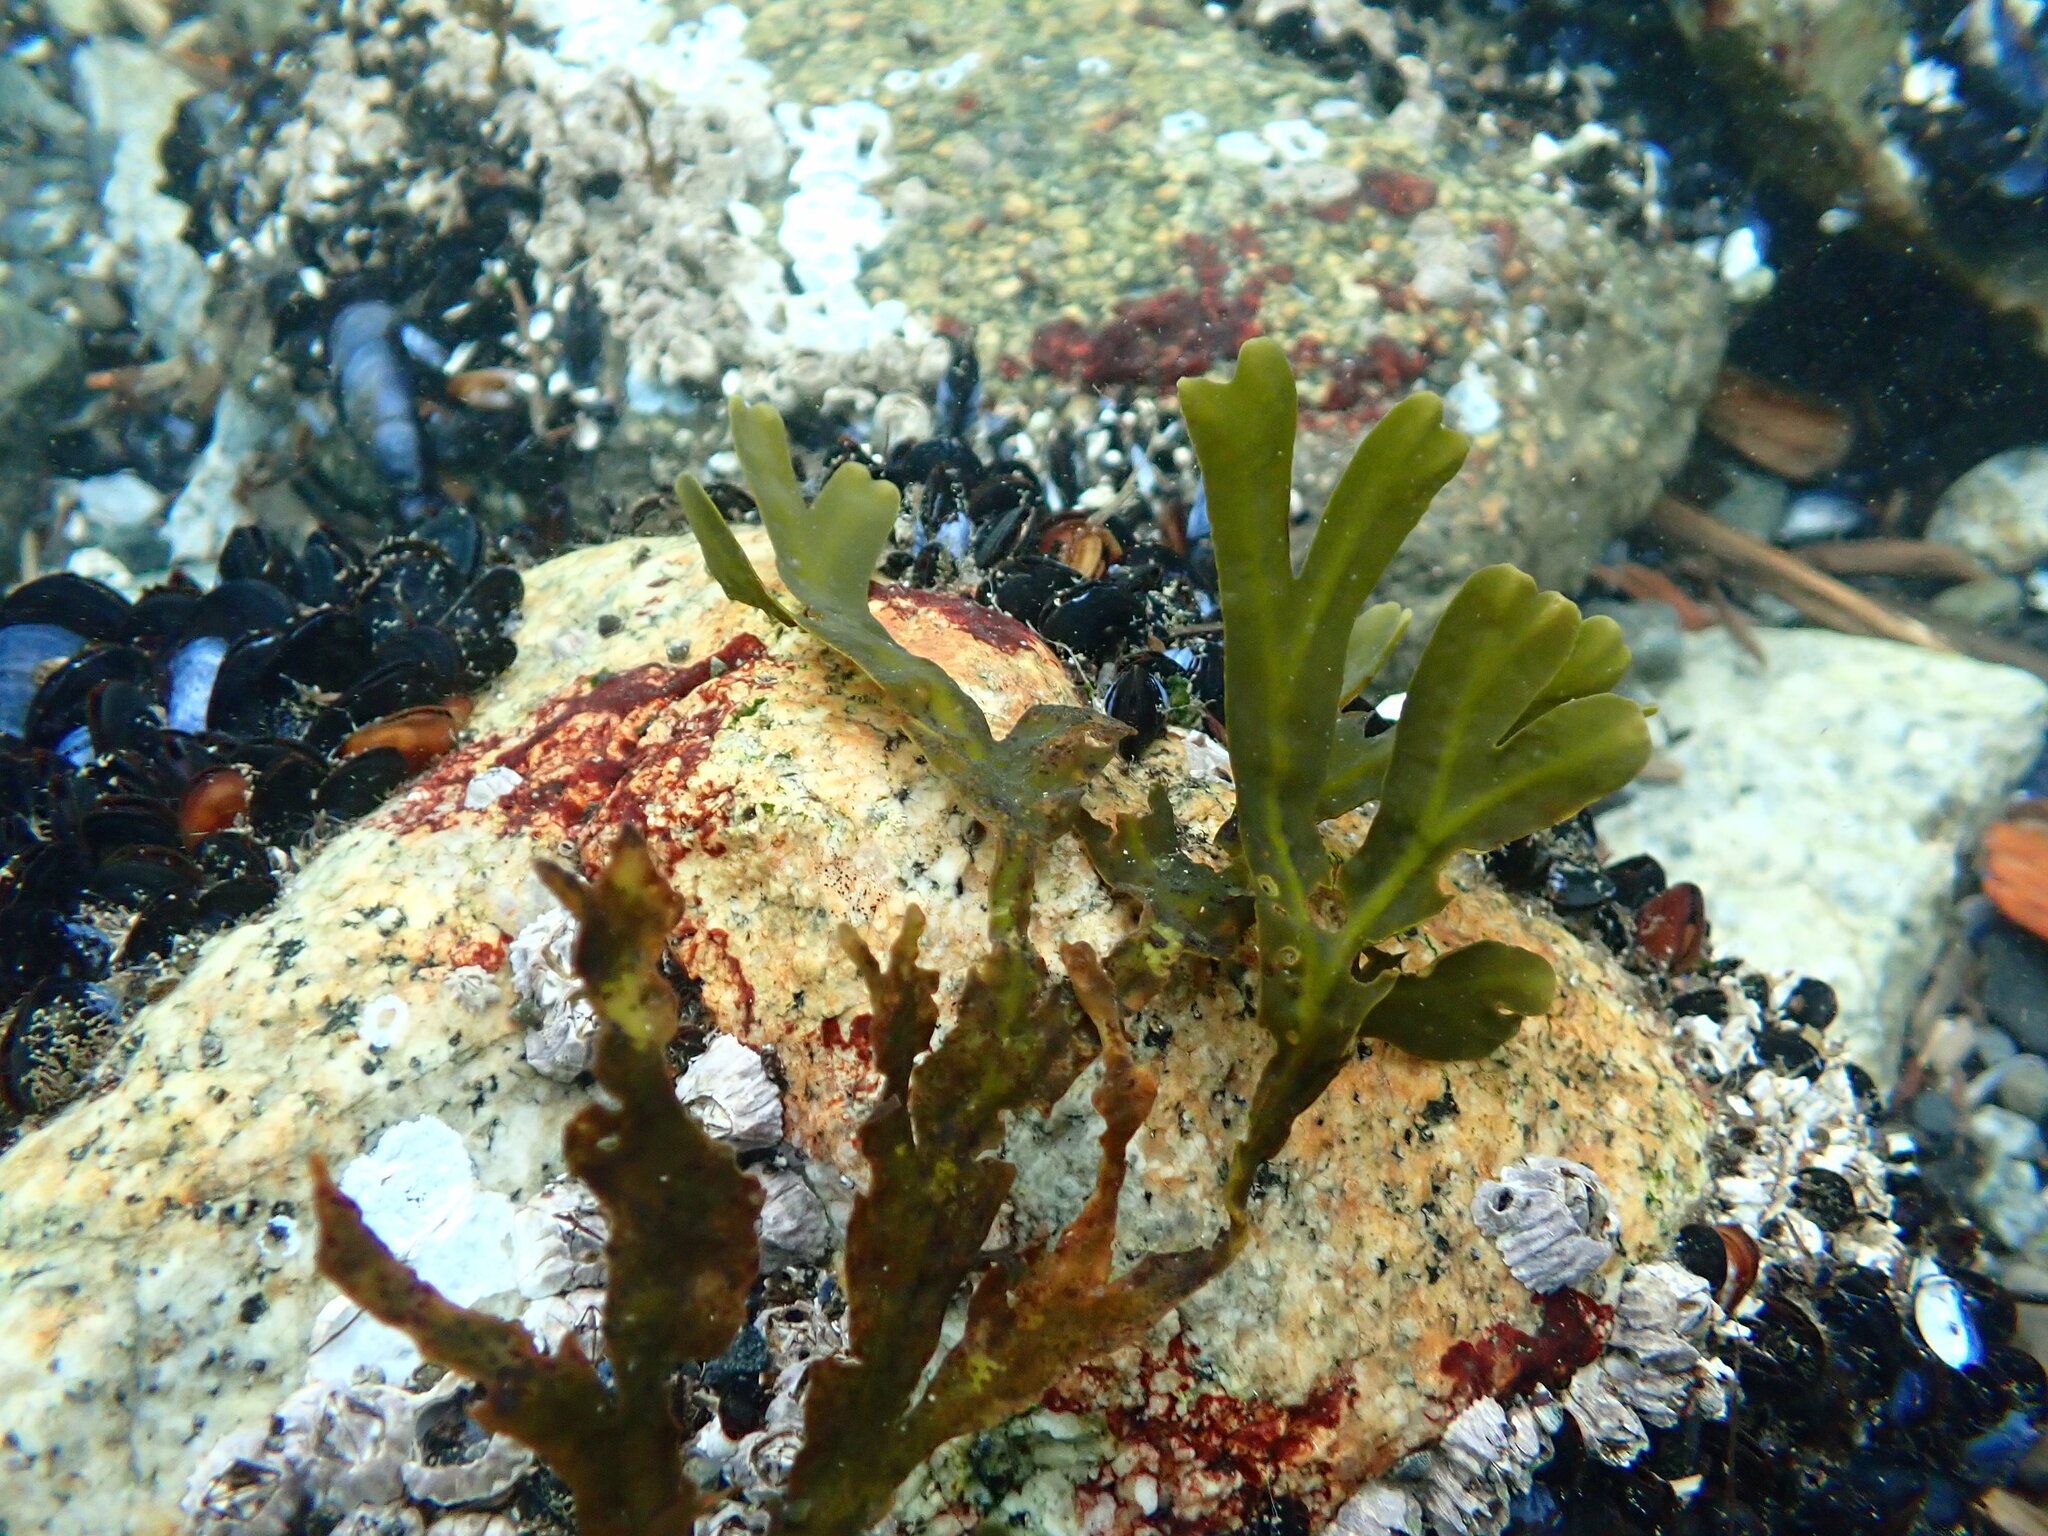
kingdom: Chromista
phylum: Ochrophyta
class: Phaeophyceae
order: Fucales
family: Fucaceae
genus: Fucus
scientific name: Fucus distichus
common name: Rockweed
